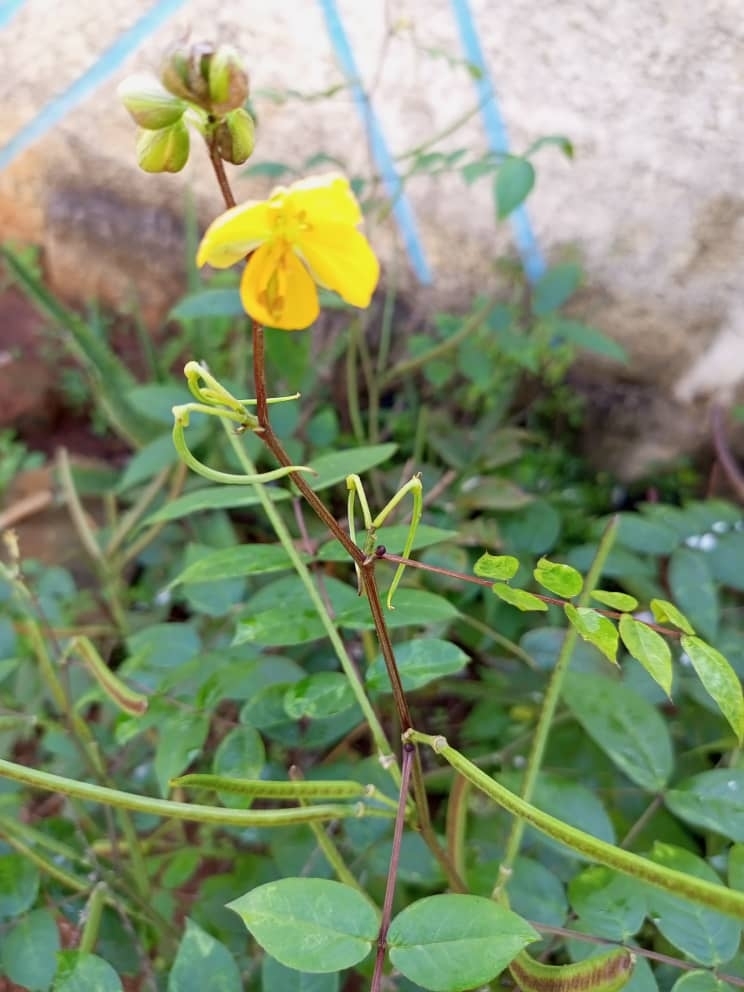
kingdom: Plantae
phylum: Tracheophyta
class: Magnoliopsida
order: Fabales
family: Fabaceae
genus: Senna
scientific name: Senna occidentalis
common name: Septicweed
